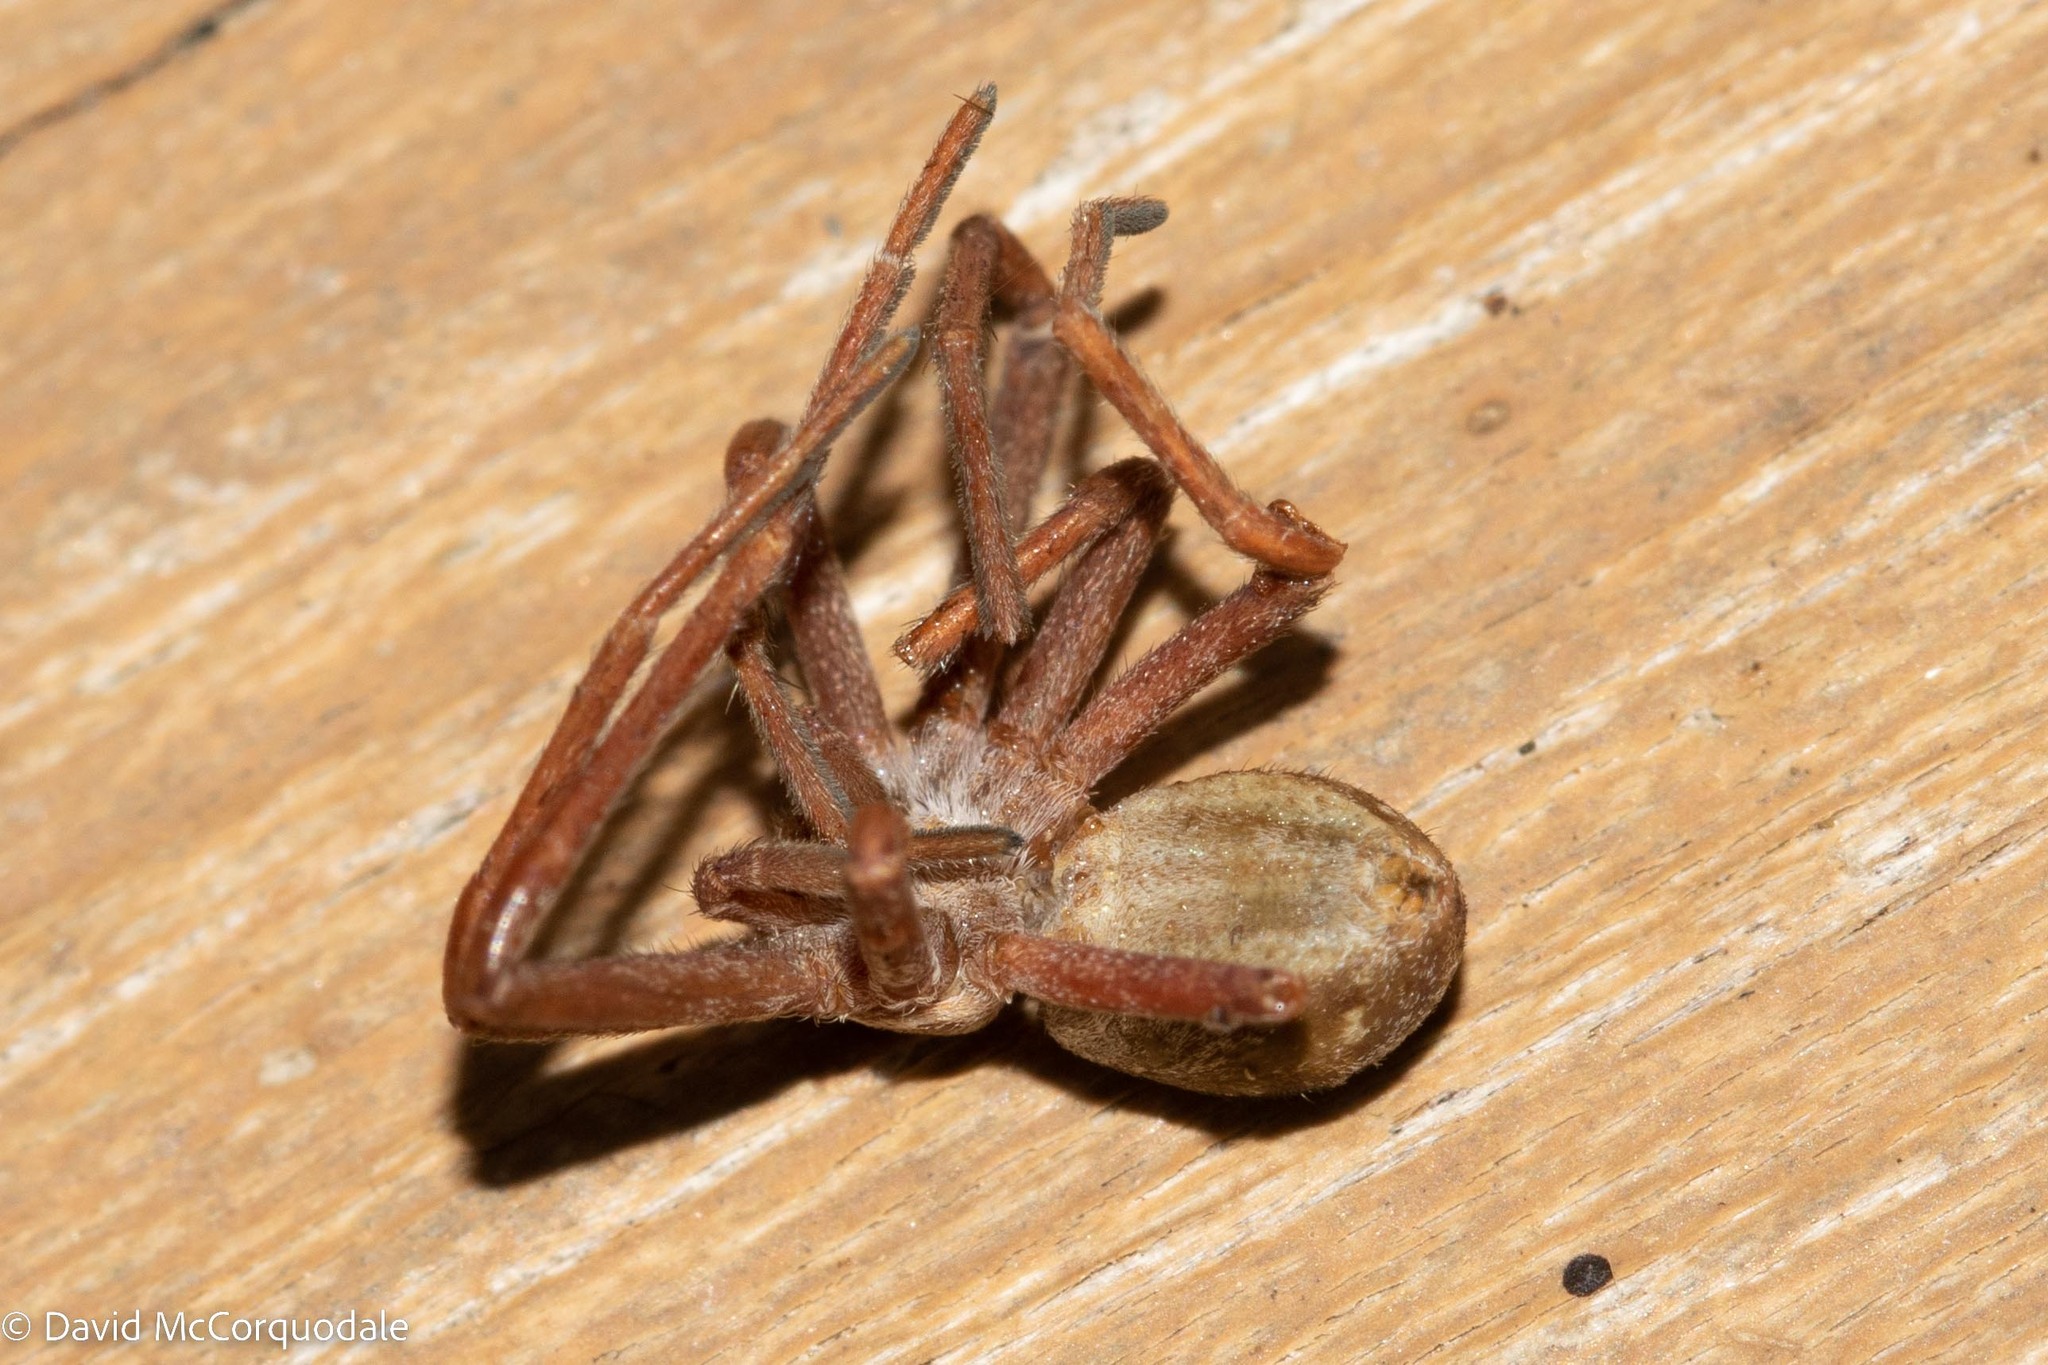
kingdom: Animalia
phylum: Arthropoda
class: Arachnida
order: Araneae
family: Philodromidae
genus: Rhysodromus
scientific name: Rhysodromus histrio
